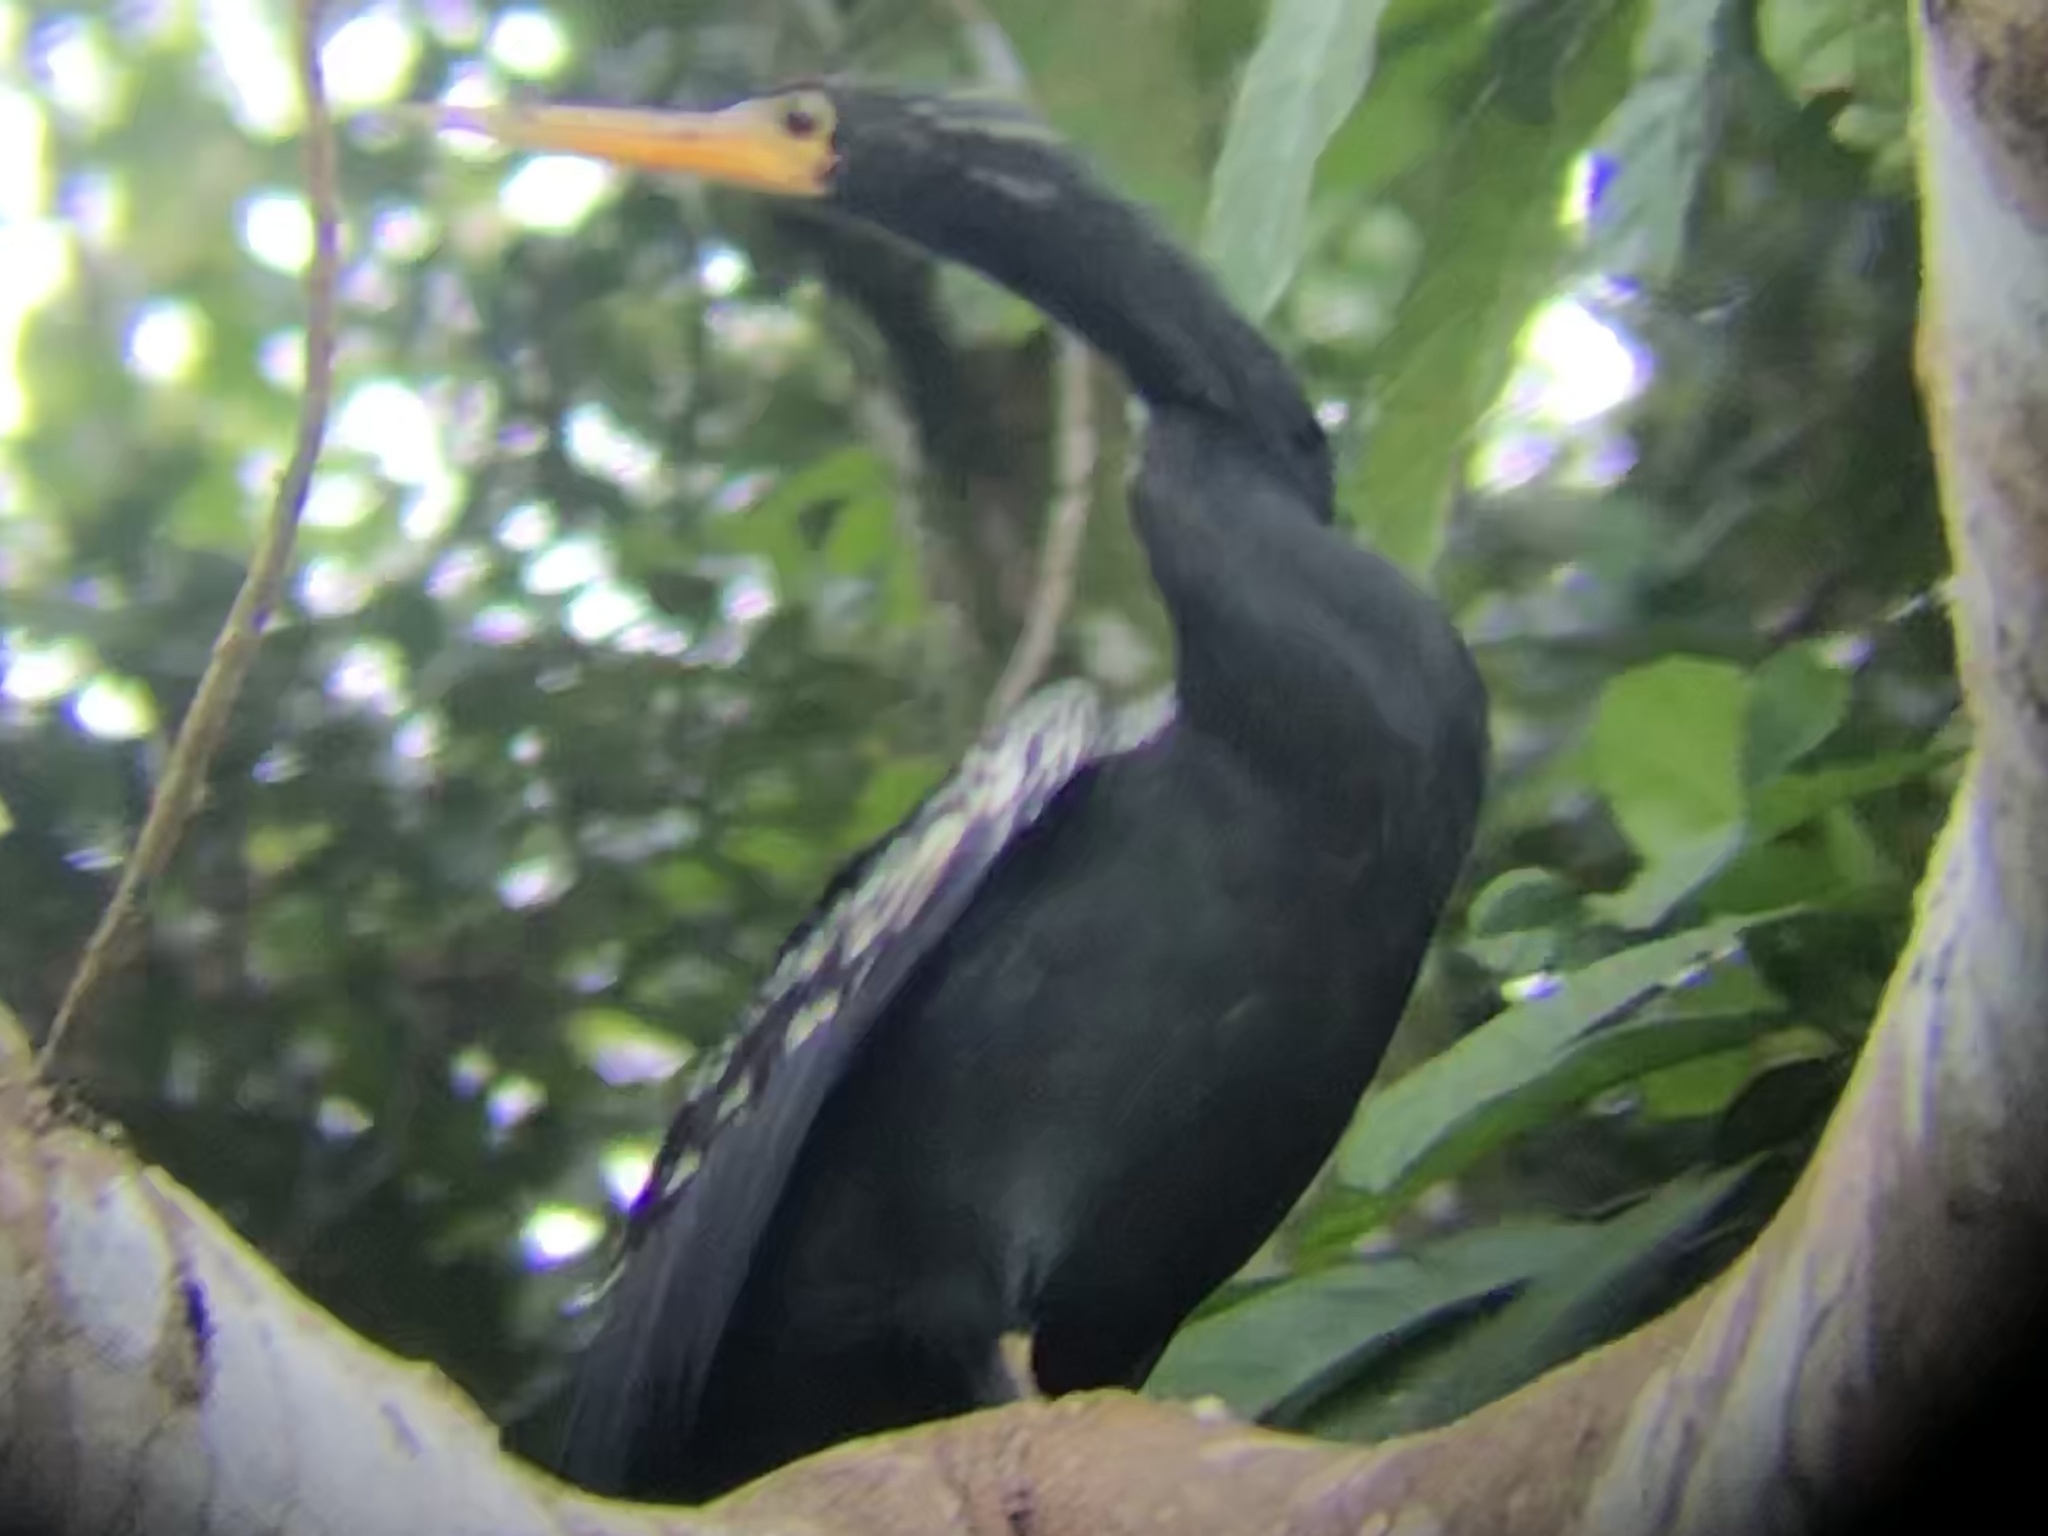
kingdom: Animalia
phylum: Chordata
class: Aves
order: Suliformes
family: Anhingidae
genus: Anhinga
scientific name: Anhinga anhinga
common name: Anhinga
